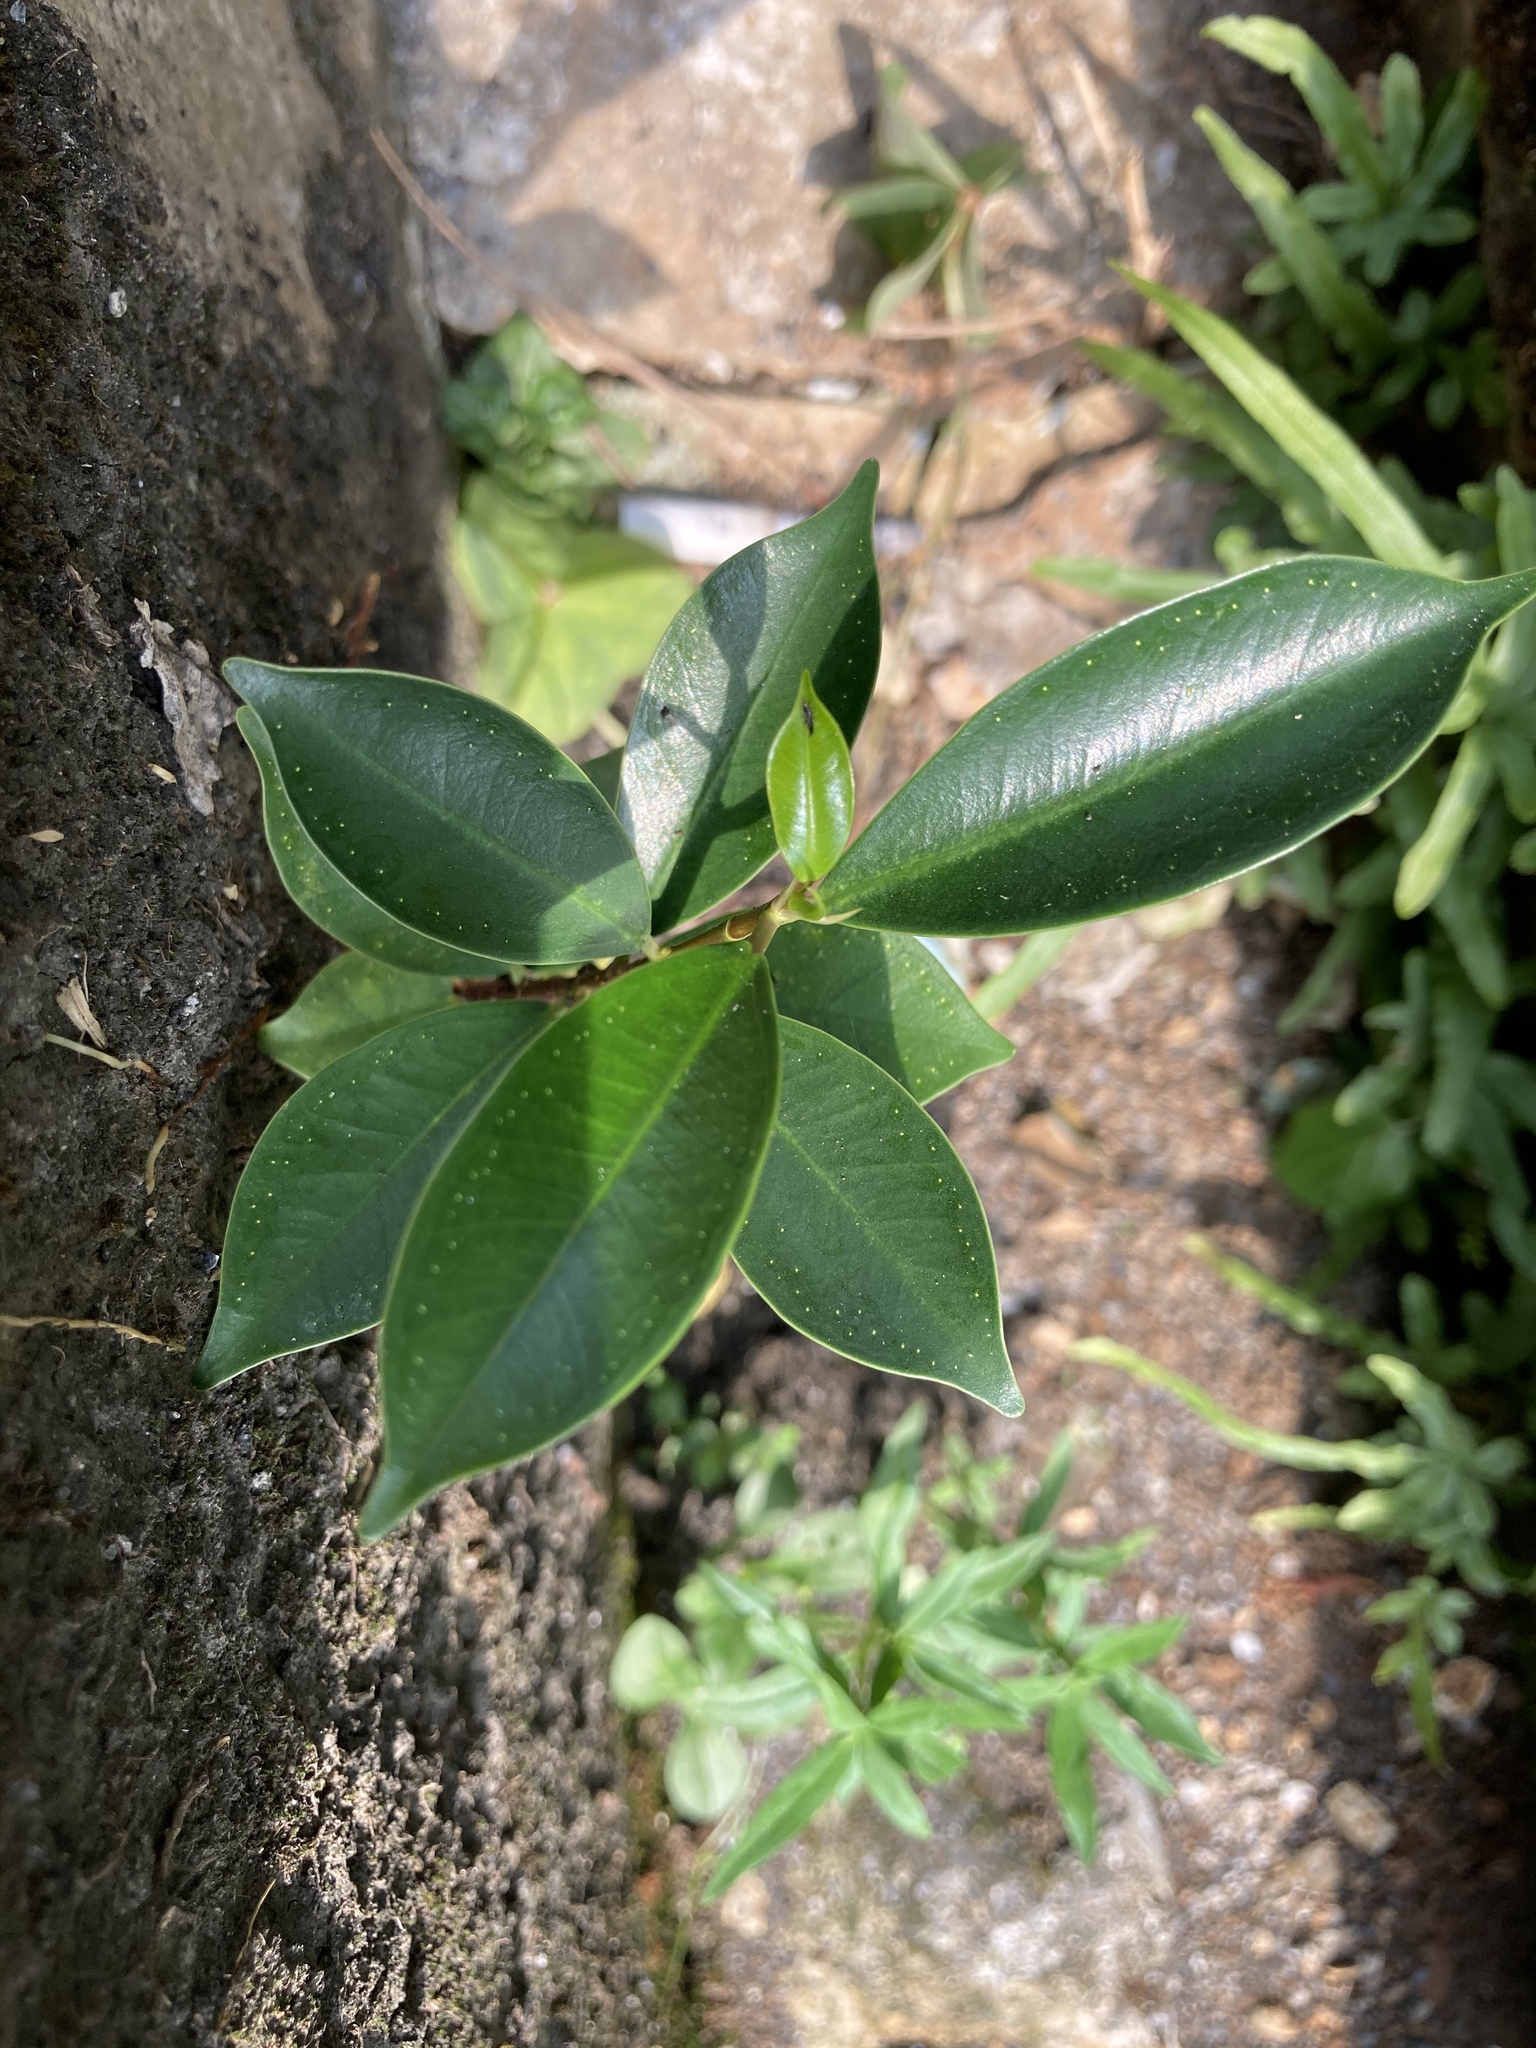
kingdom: Plantae
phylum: Tracheophyta
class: Magnoliopsida
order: Rosales
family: Moraceae
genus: Ficus
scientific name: Ficus microcarpa
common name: Chinese banyan
